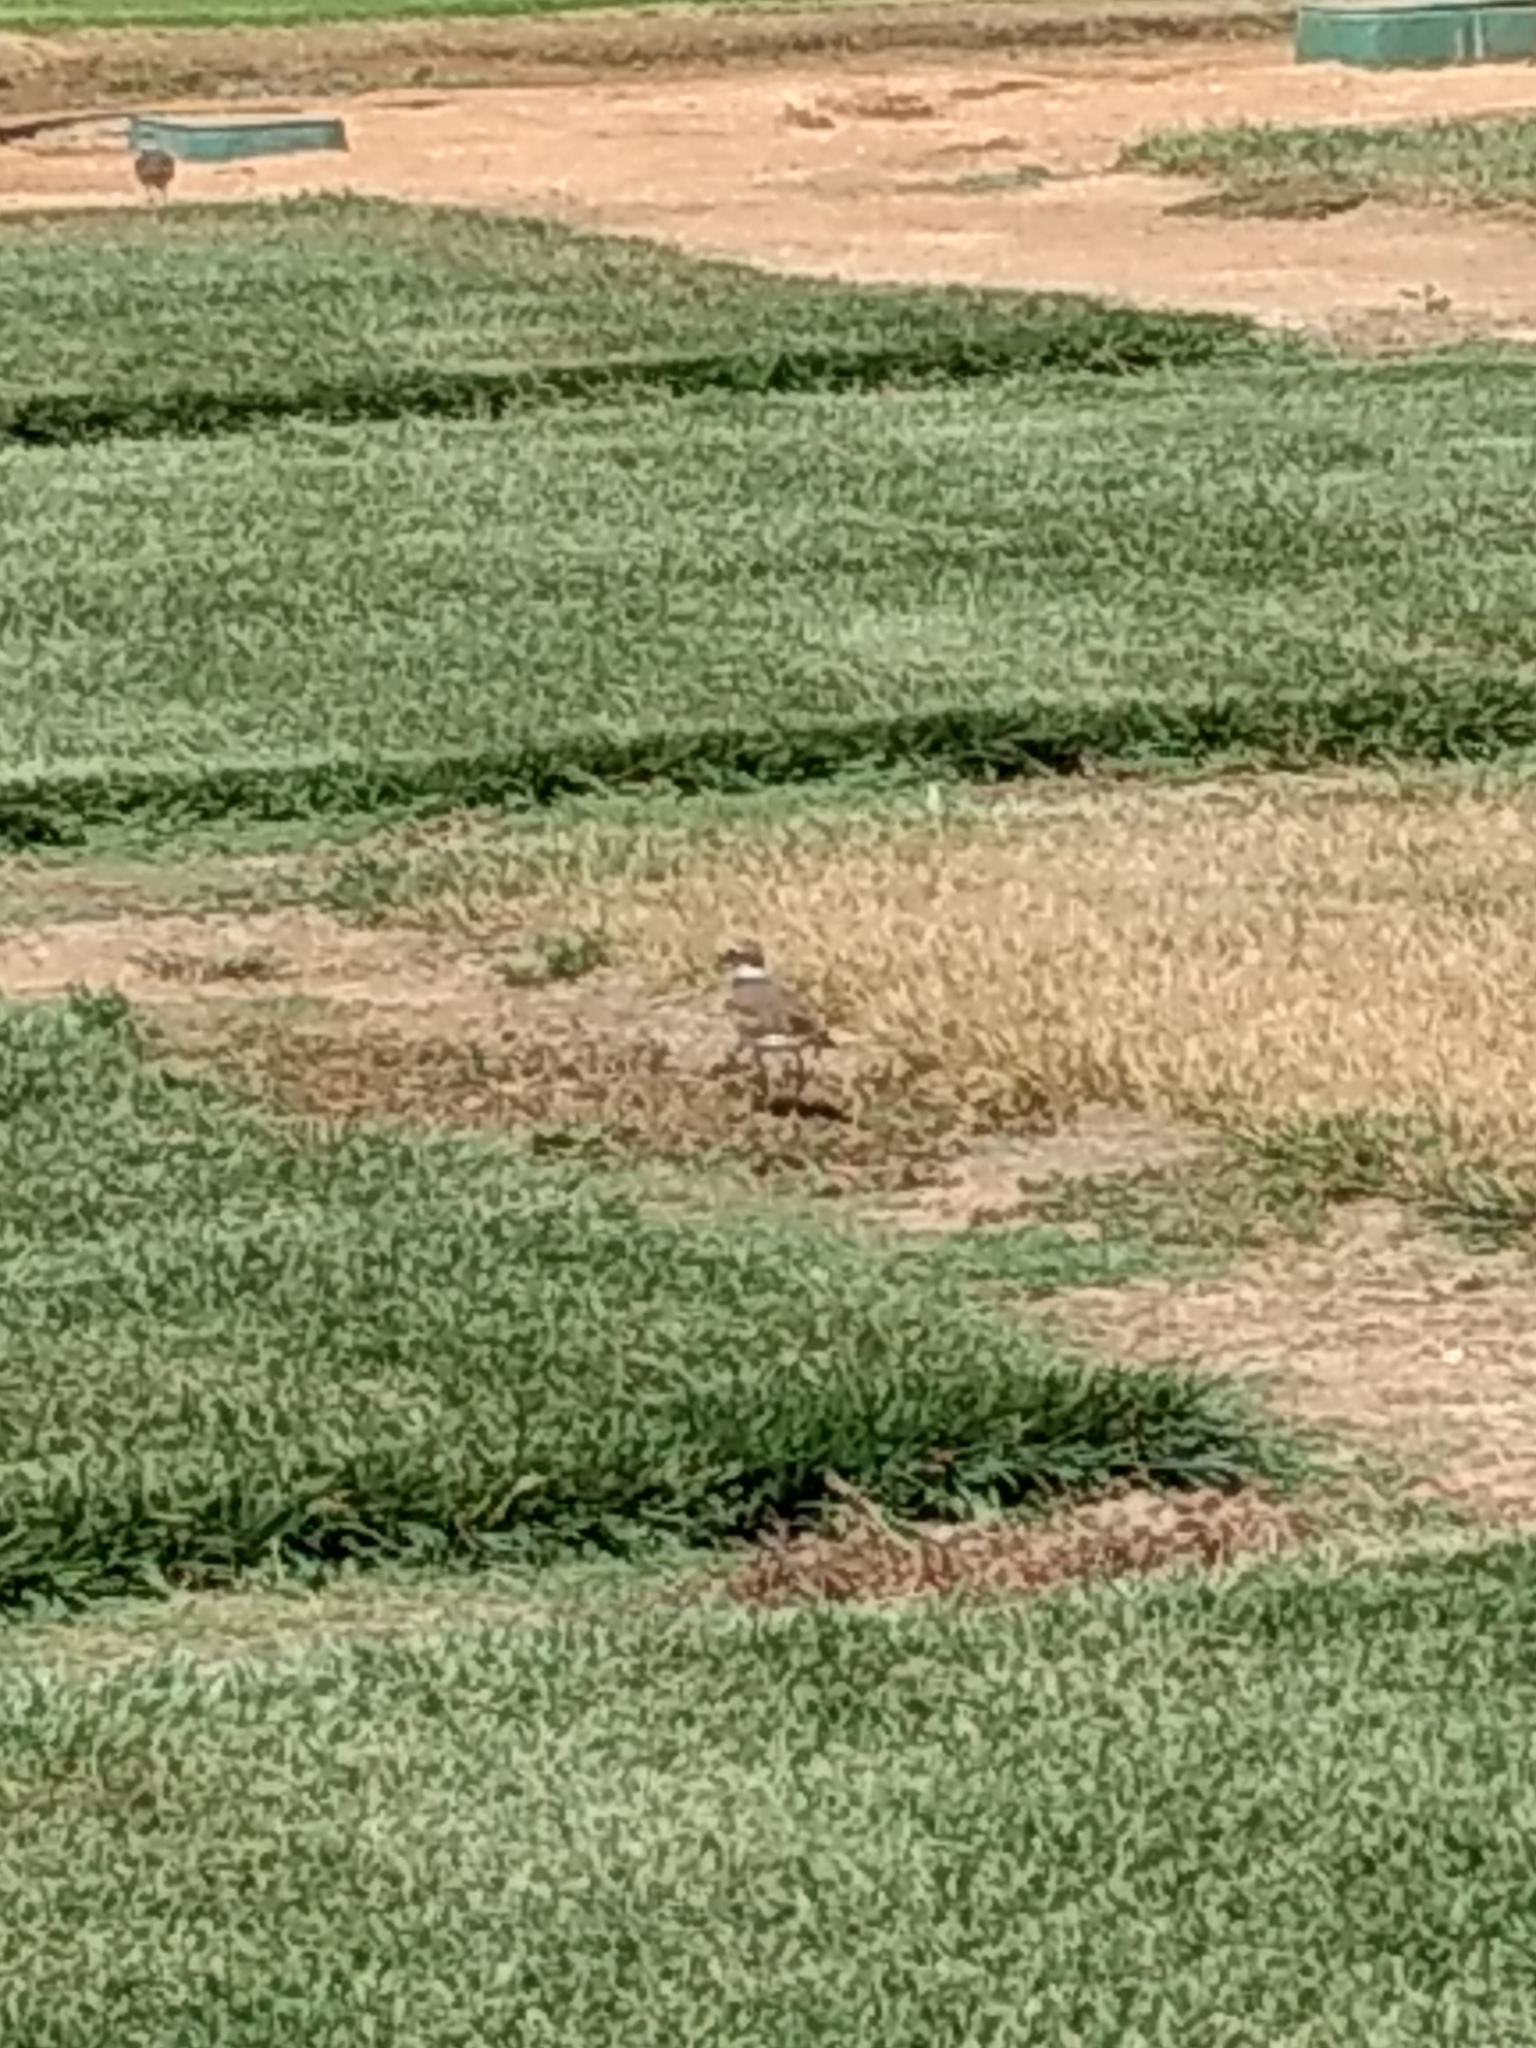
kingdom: Animalia
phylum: Chordata
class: Aves
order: Charadriiformes
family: Charadriidae
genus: Charadrius
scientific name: Charadrius vociferus
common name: Killdeer
